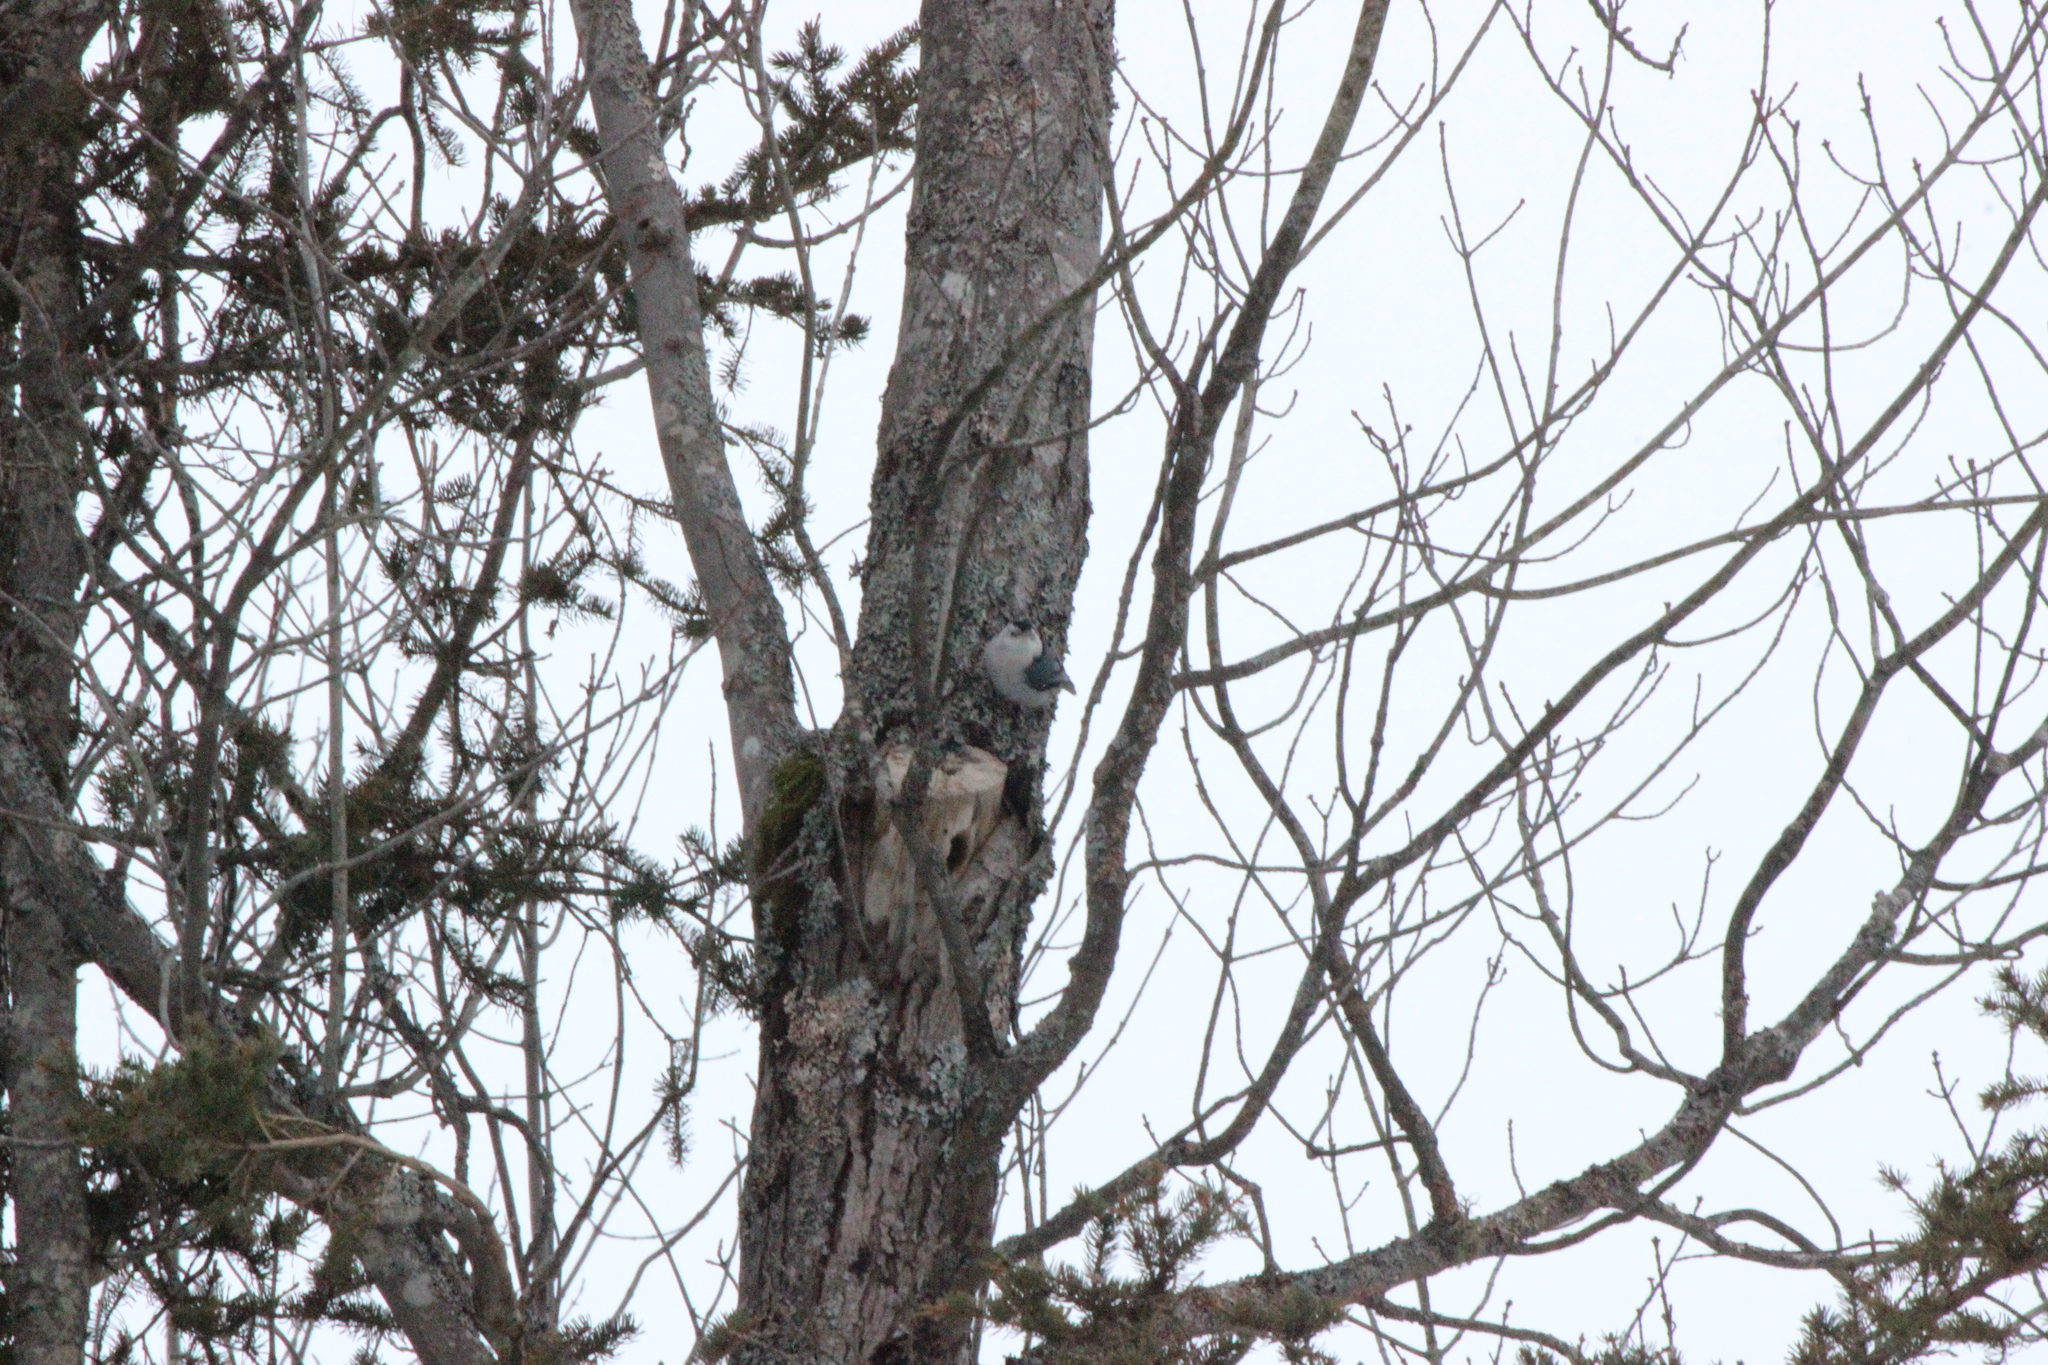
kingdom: Animalia
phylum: Chordata
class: Aves
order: Passeriformes
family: Sittidae
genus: Sitta
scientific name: Sitta carolinensis
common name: White-breasted nuthatch
